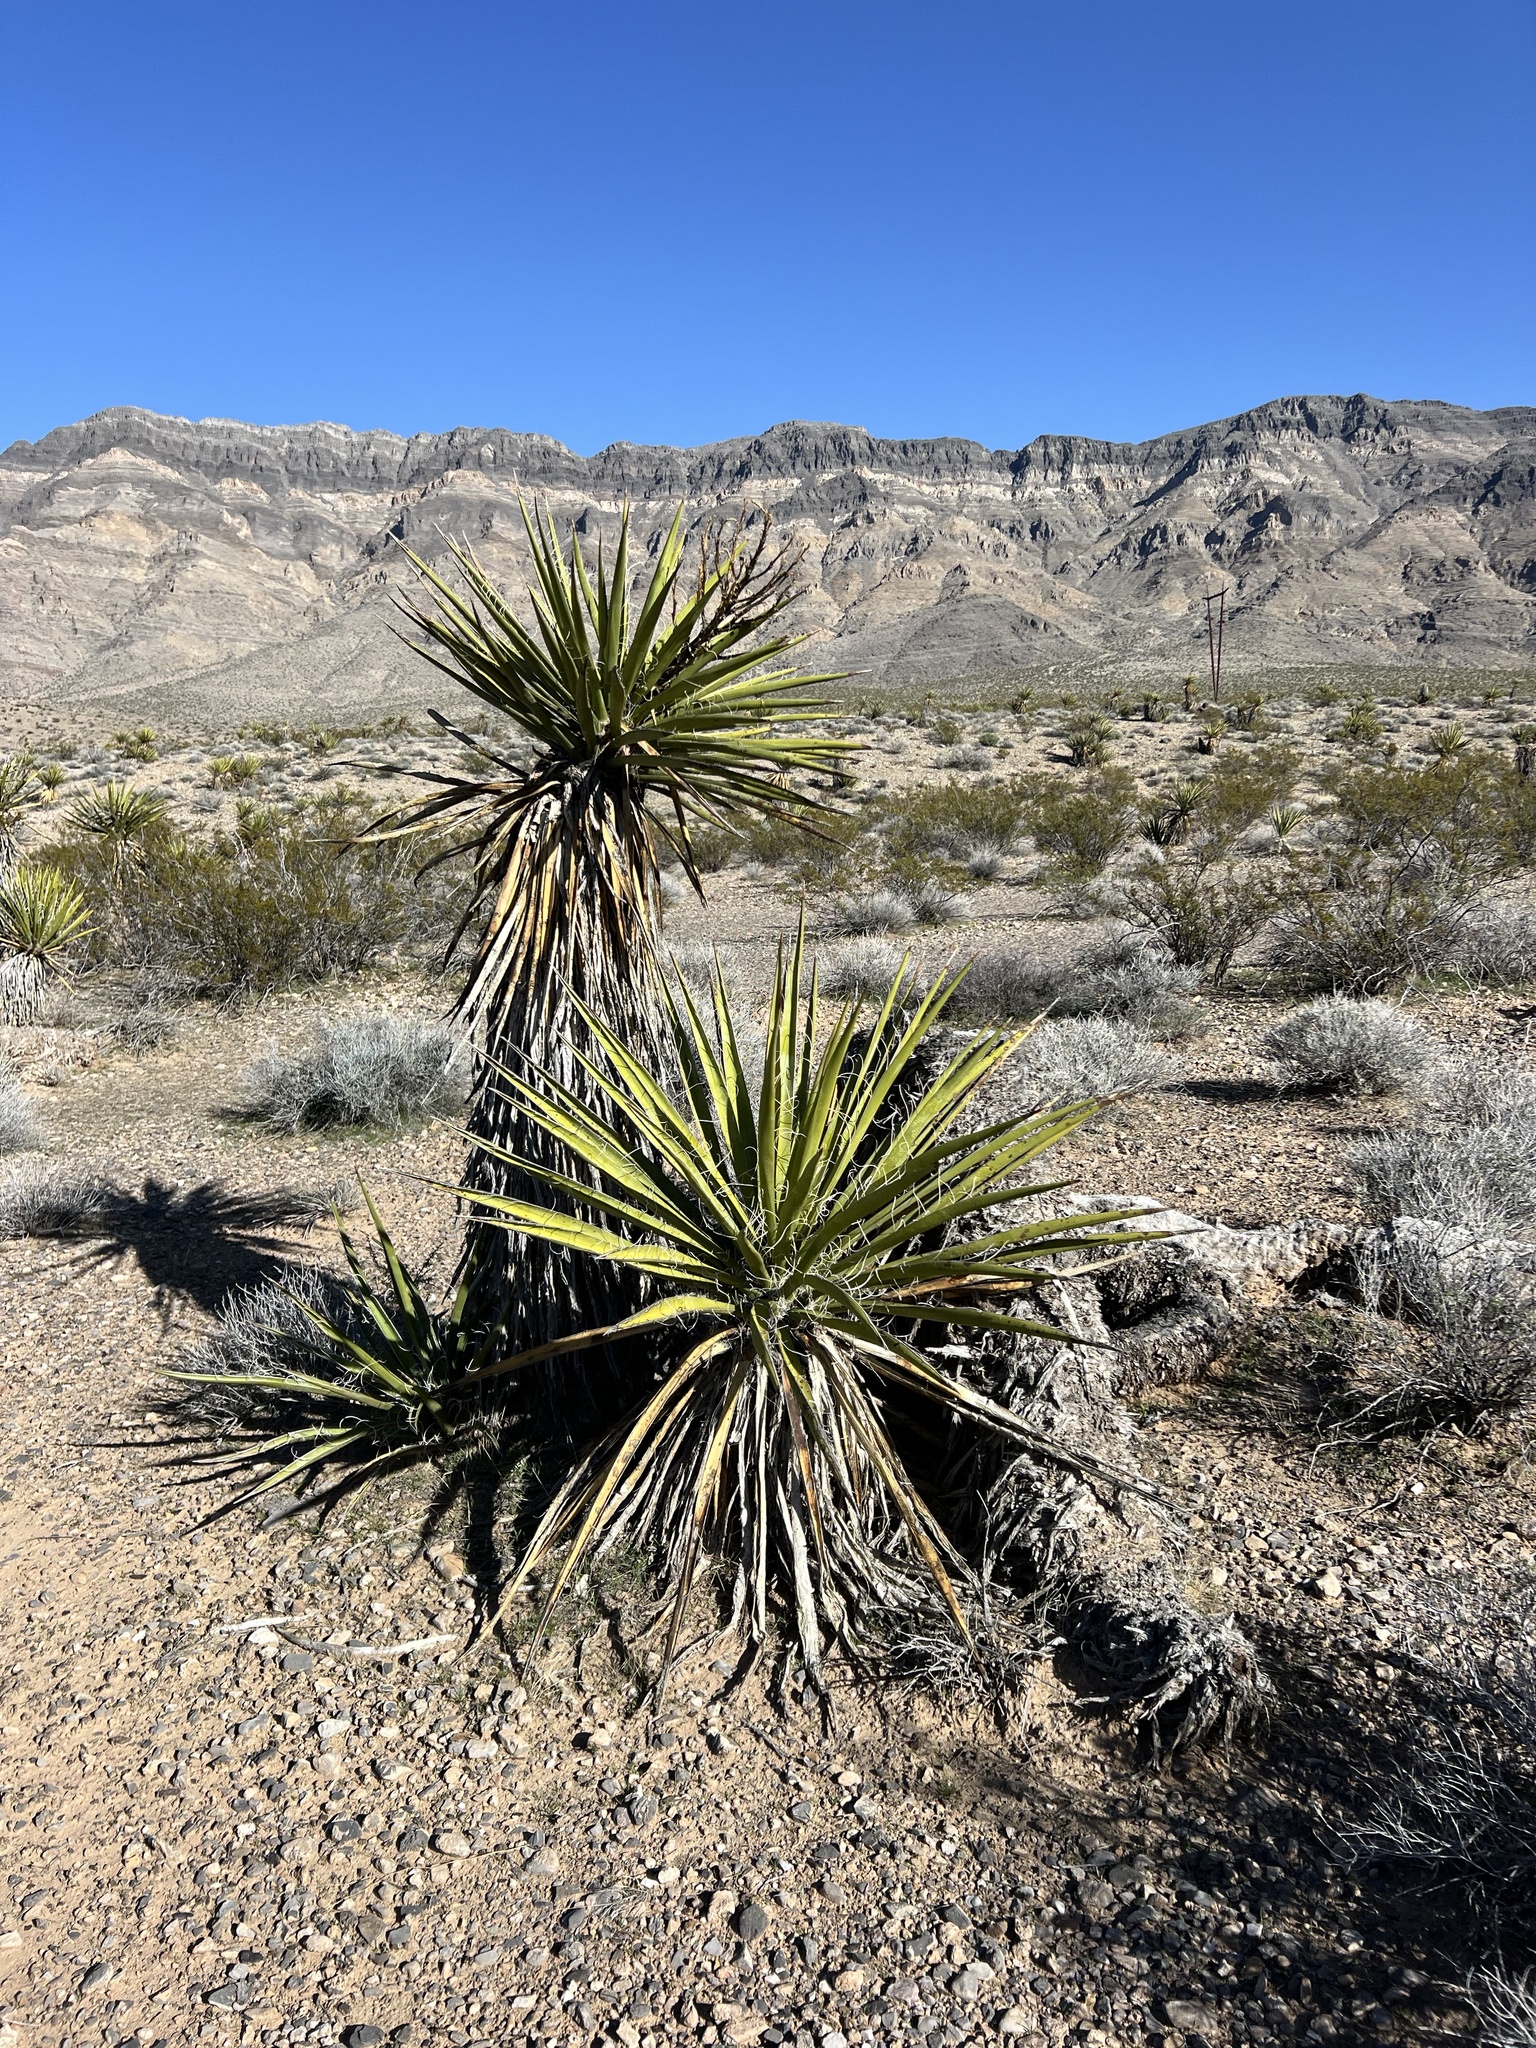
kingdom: Plantae
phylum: Tracheophyta
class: Liliopsida
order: Asparagales
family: Asparagaceae
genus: Yucca
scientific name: Yucca schidigera
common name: Mojave yucca
